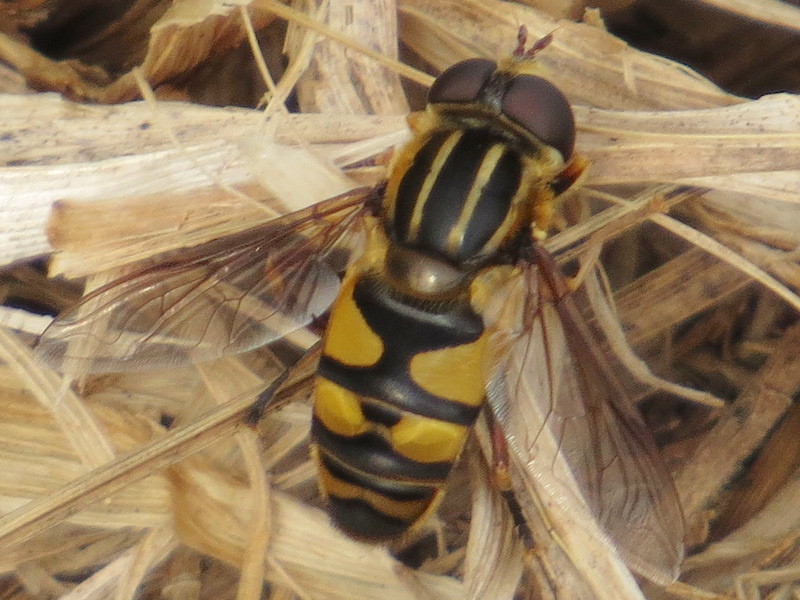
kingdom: Animalia
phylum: Arthropoda
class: Insecta
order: Diptera
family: Syrphidae
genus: Helophilus
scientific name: Helophilus fasciatus
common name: Narrow-headed marsh fly
